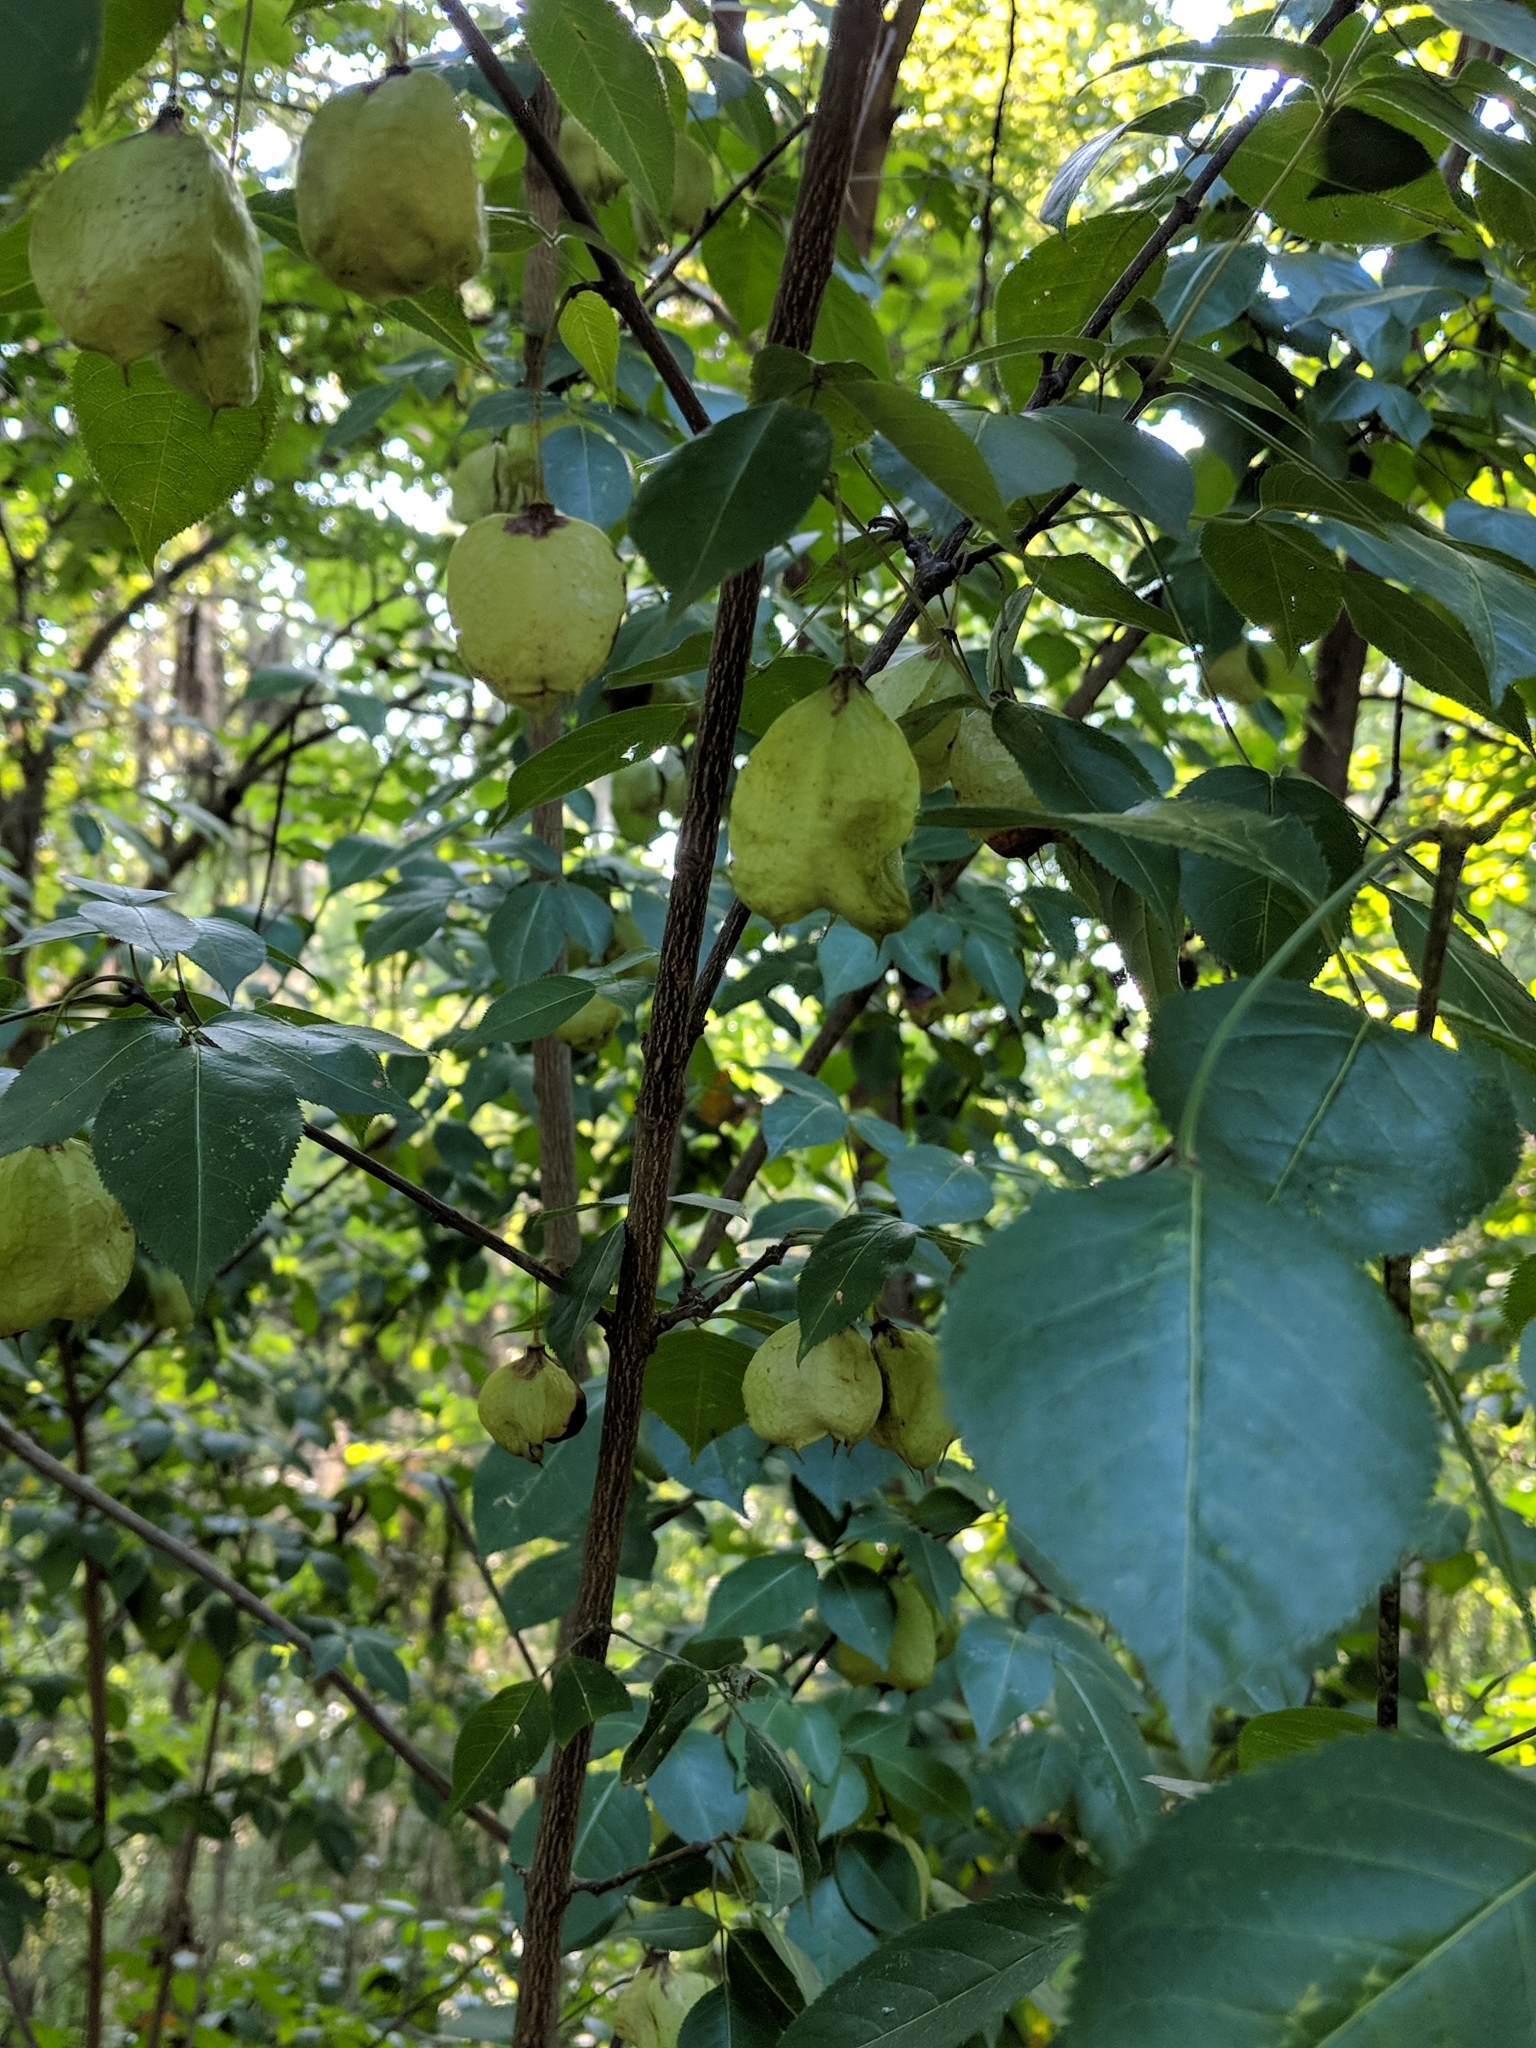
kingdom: Plantae
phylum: Tracheophyta
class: Magnoliopsida
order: Crossosomatales
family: Staphyleaceae
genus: Staphylea
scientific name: Staphylea trifolia
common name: American bladdernut
